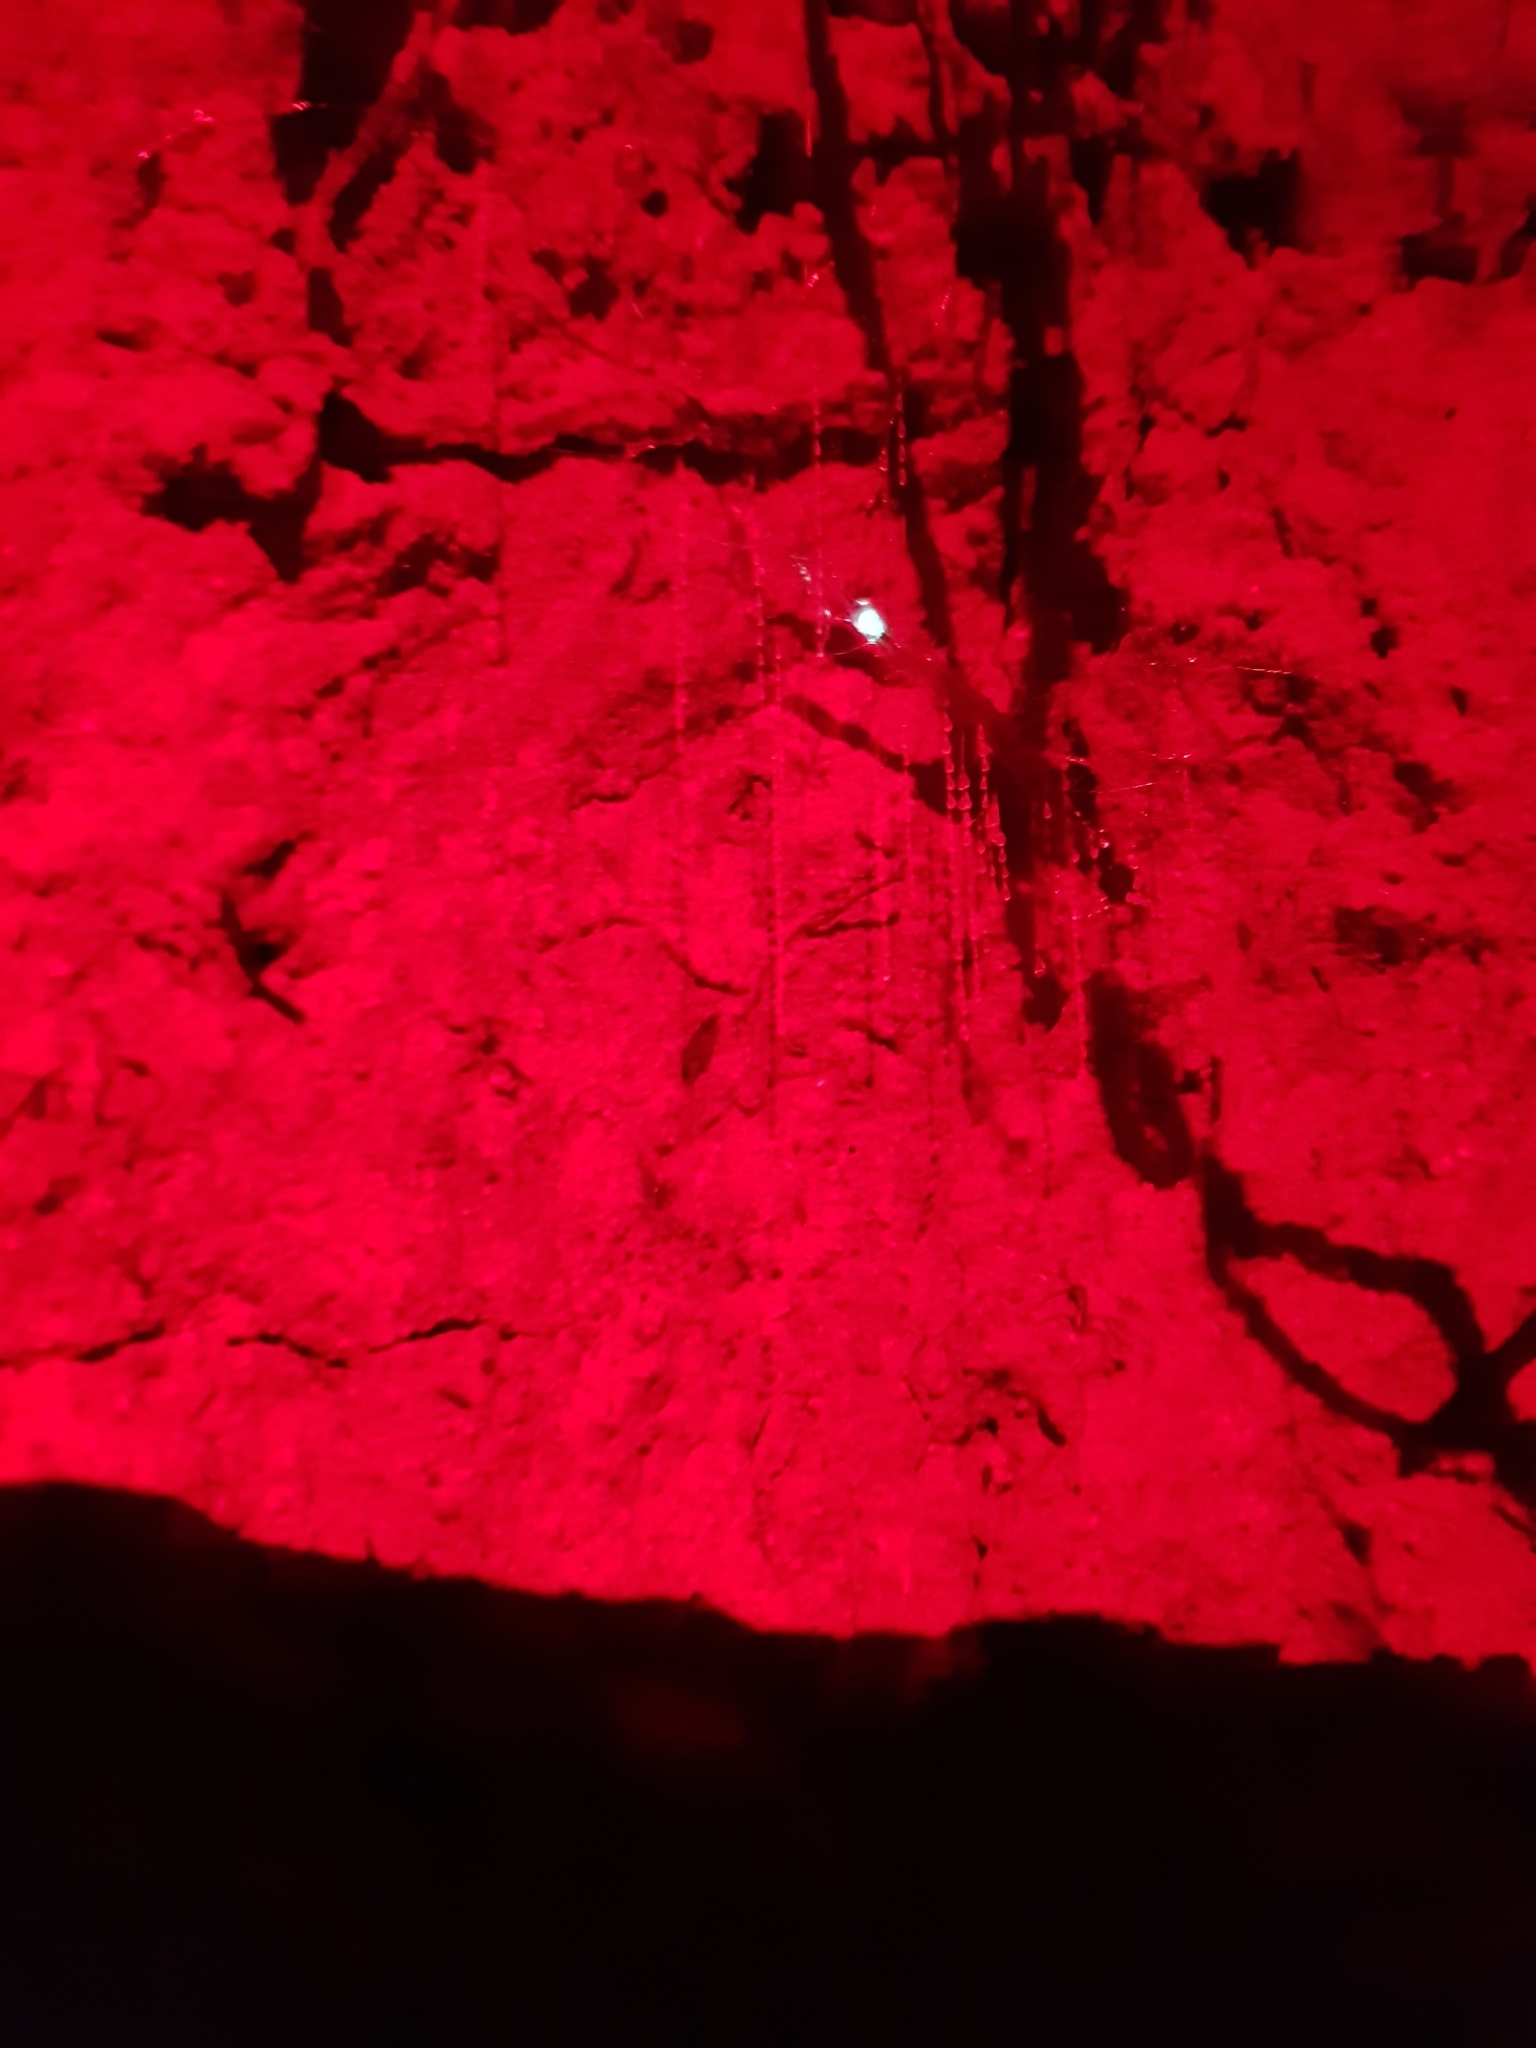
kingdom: Animalia
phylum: Arthropoda
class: Insecta
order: Diptera
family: Keroplatidae
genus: Arachnocampa
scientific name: Arachnocampa luminosa
